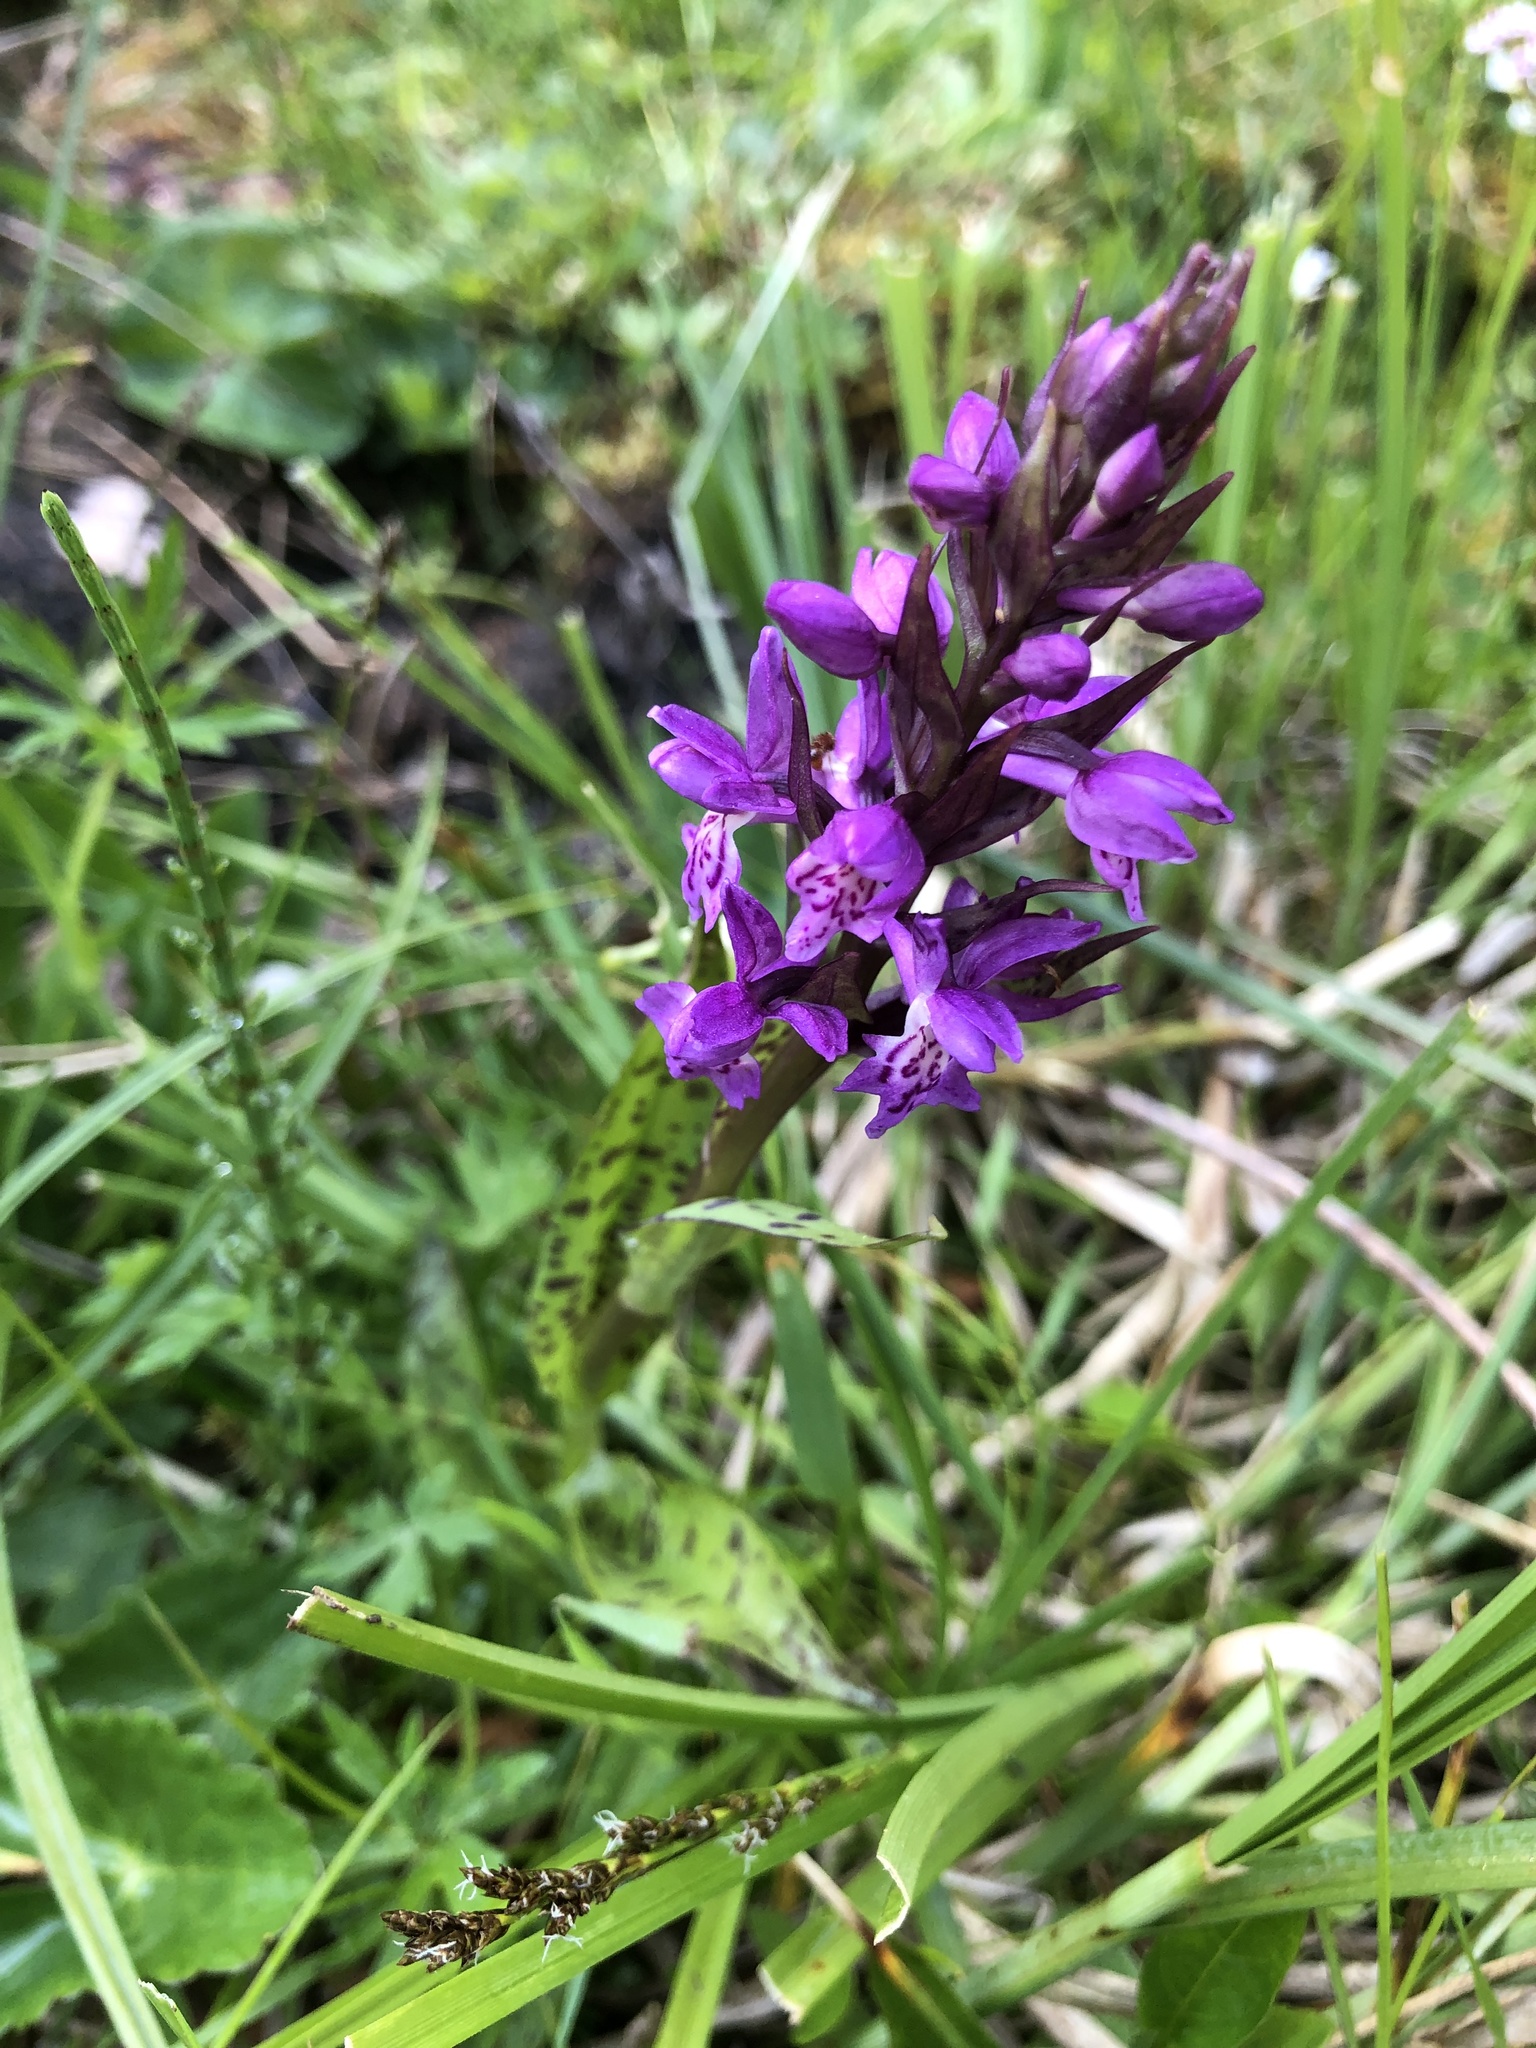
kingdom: Plantae
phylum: Tracheophyta
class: Liliopsida
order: Asparagales
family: Orchidaceae
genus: Dactylorhiza
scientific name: Dactylorhiza majalis
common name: Marsh orchid
